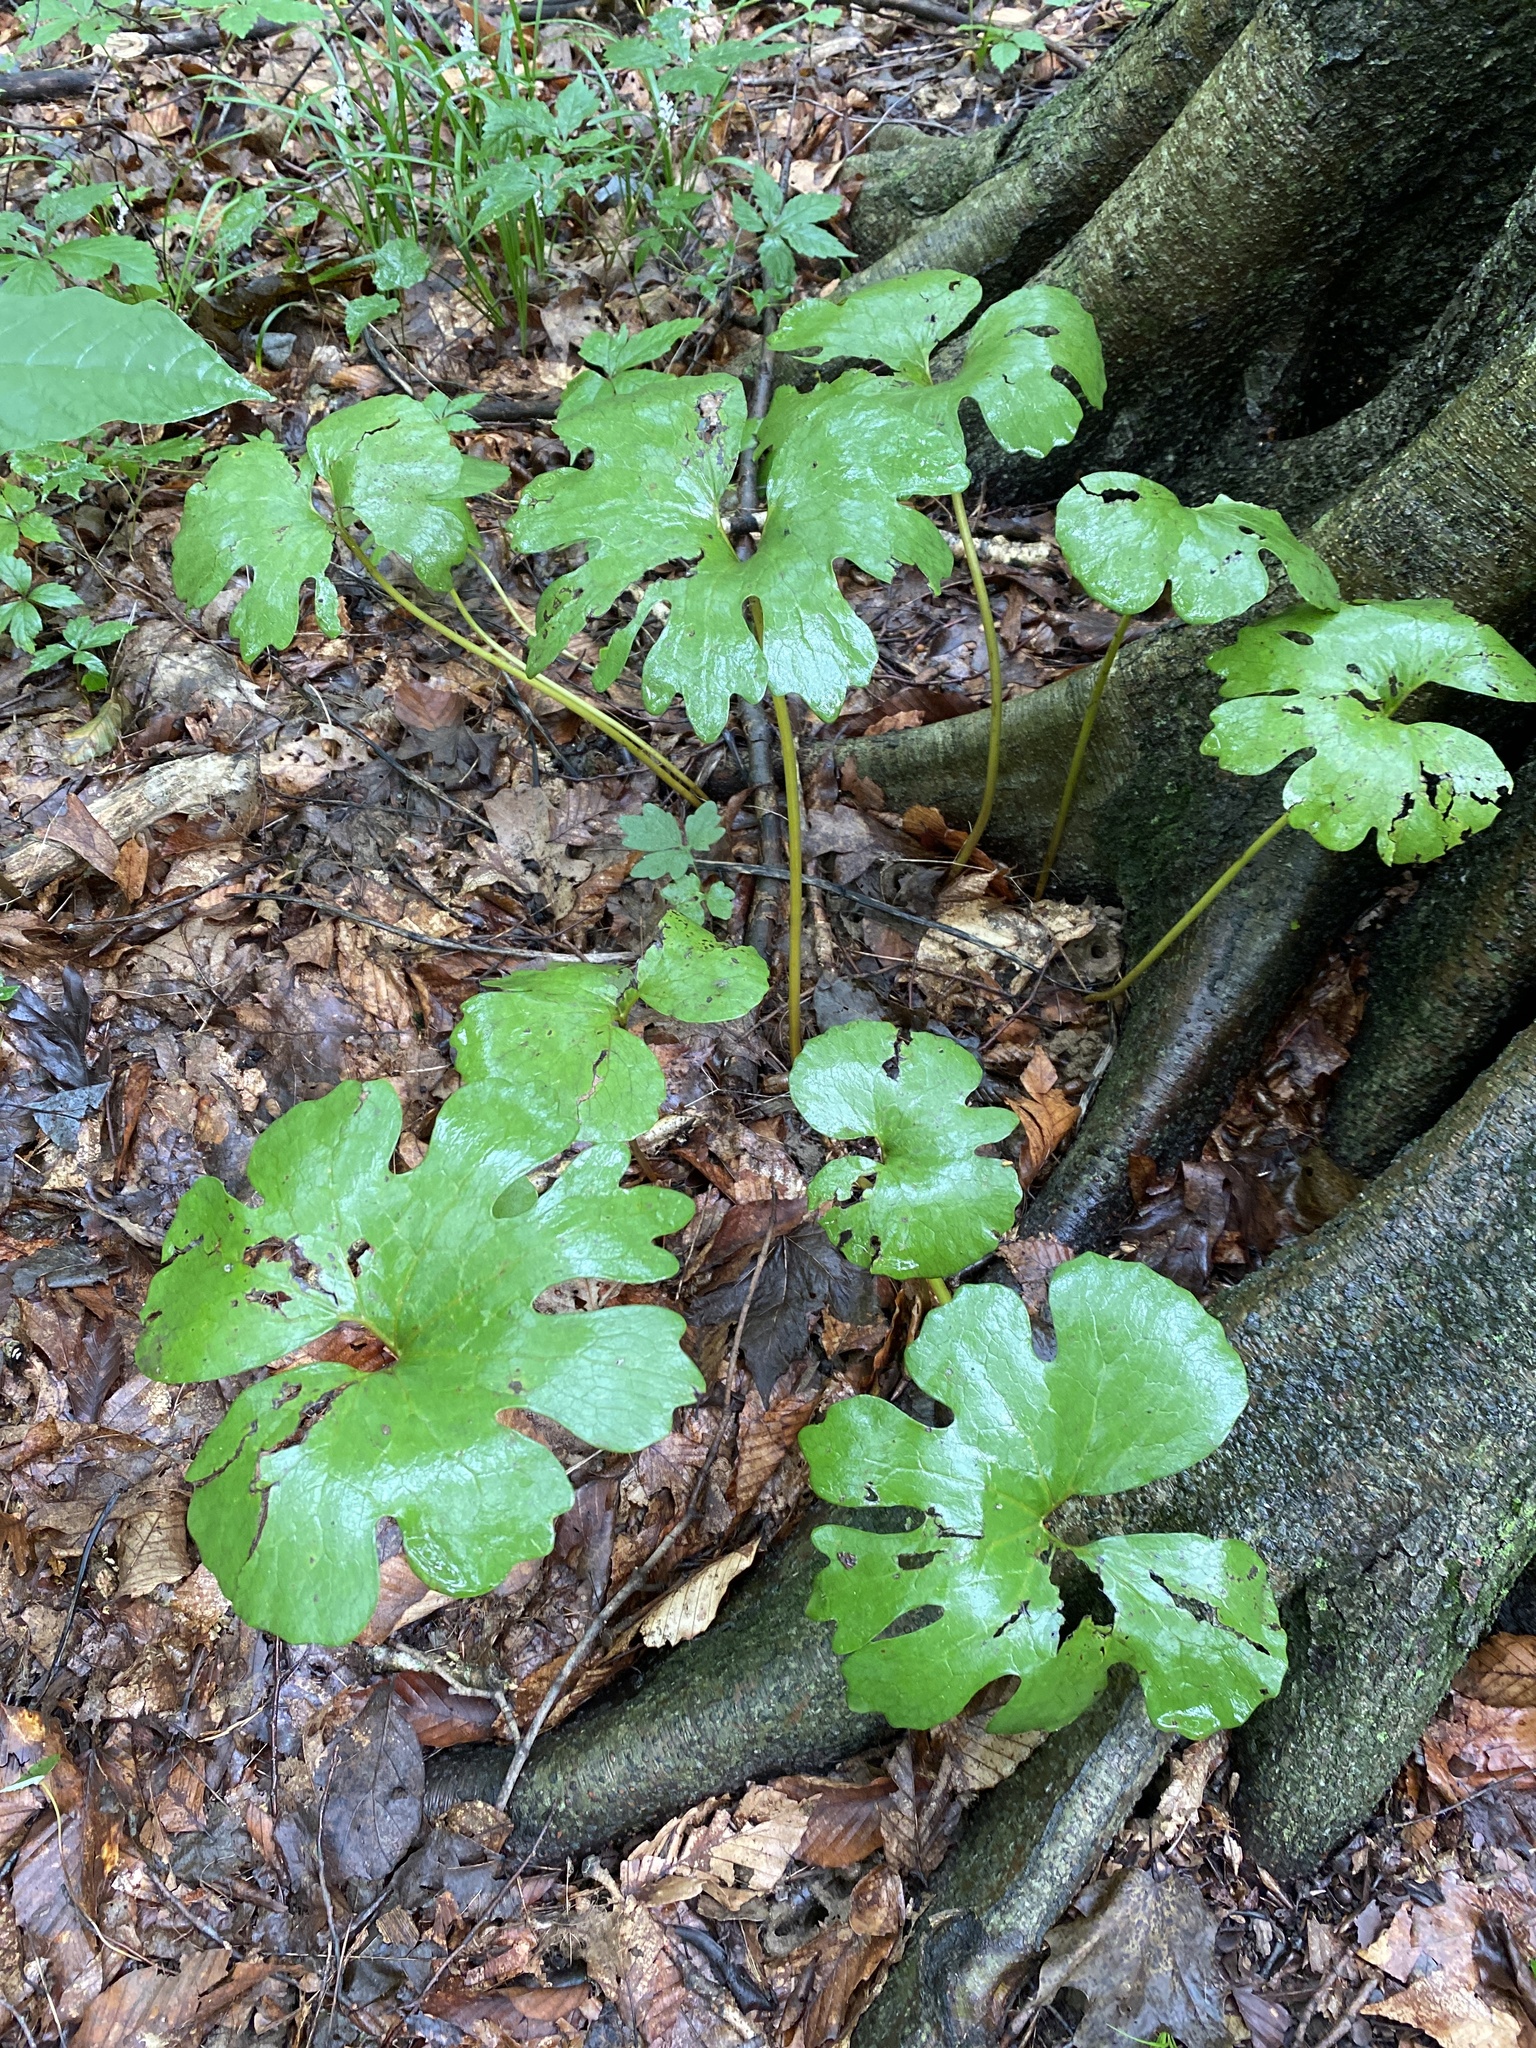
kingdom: Plantae
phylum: Tracheophyta
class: Magnoliopsida
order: Ranunculales
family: Papaveraceae
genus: Sanguinaria
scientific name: Sanguinaria canadensis
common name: Bloodroot
